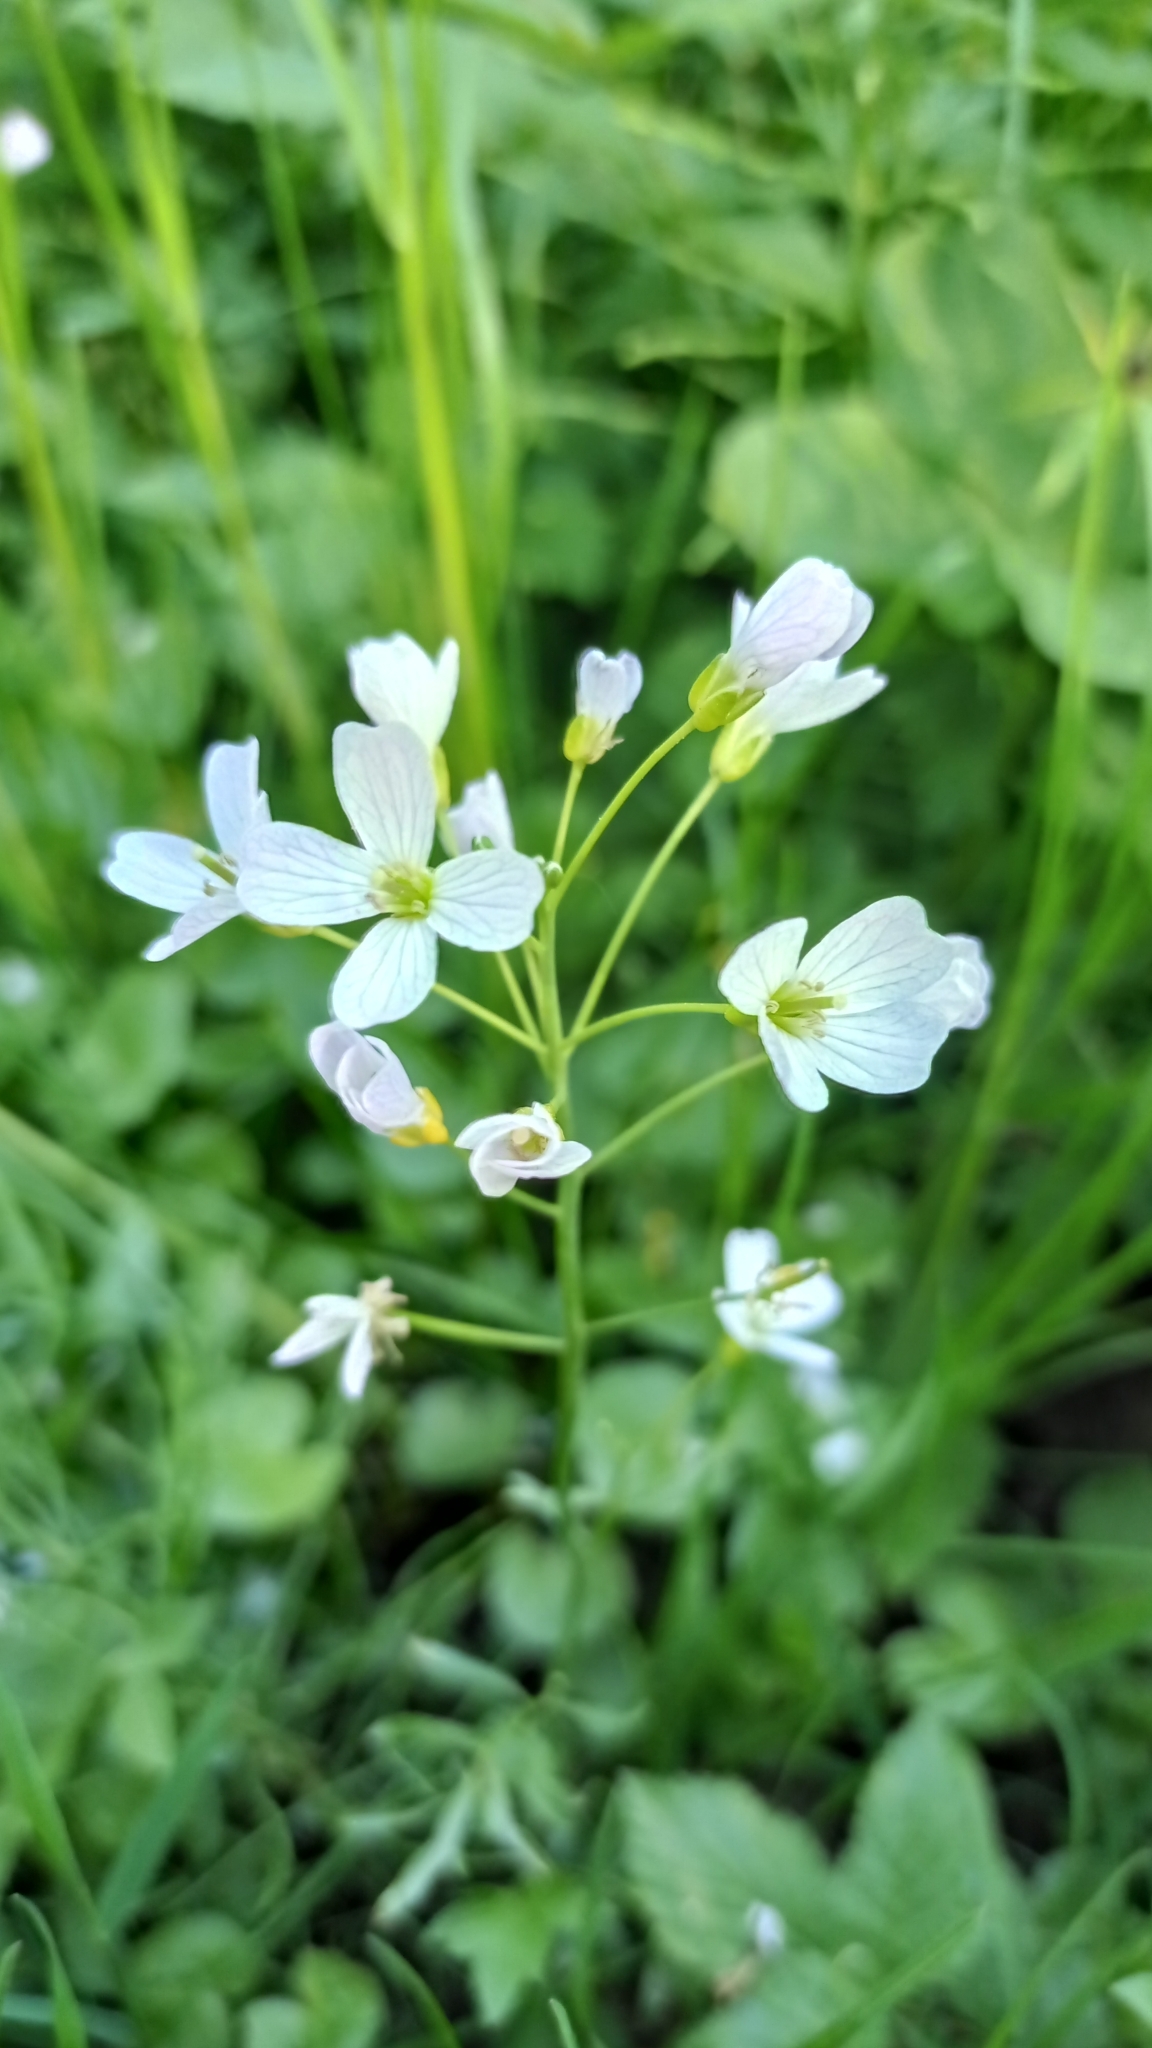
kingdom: Plantae
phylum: Tracheophyta
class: Magnoliopsida
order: Brassicales
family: Brassicaceae
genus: Cardamine
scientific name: Cardamine dentata
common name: Toothed bittercress
